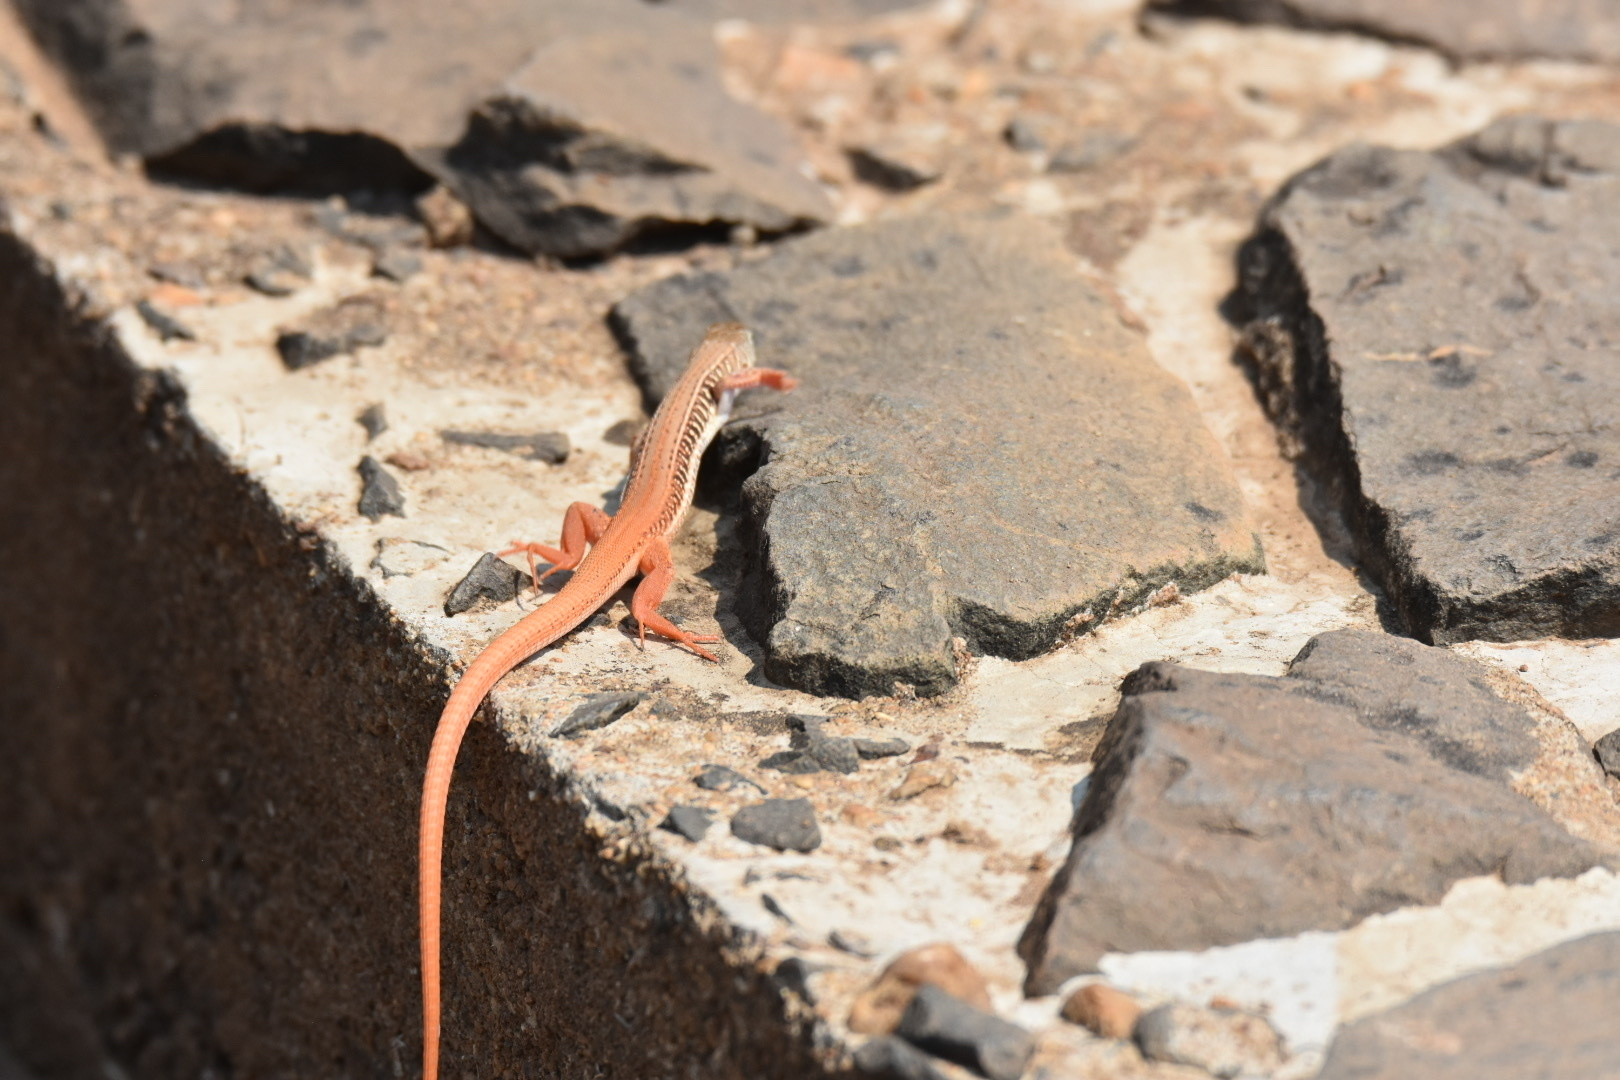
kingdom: Animalia
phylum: Chordata
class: Squamata
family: Lacertidae
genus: Nucras
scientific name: Nucras ornata
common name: Ornate sandveld lizard
